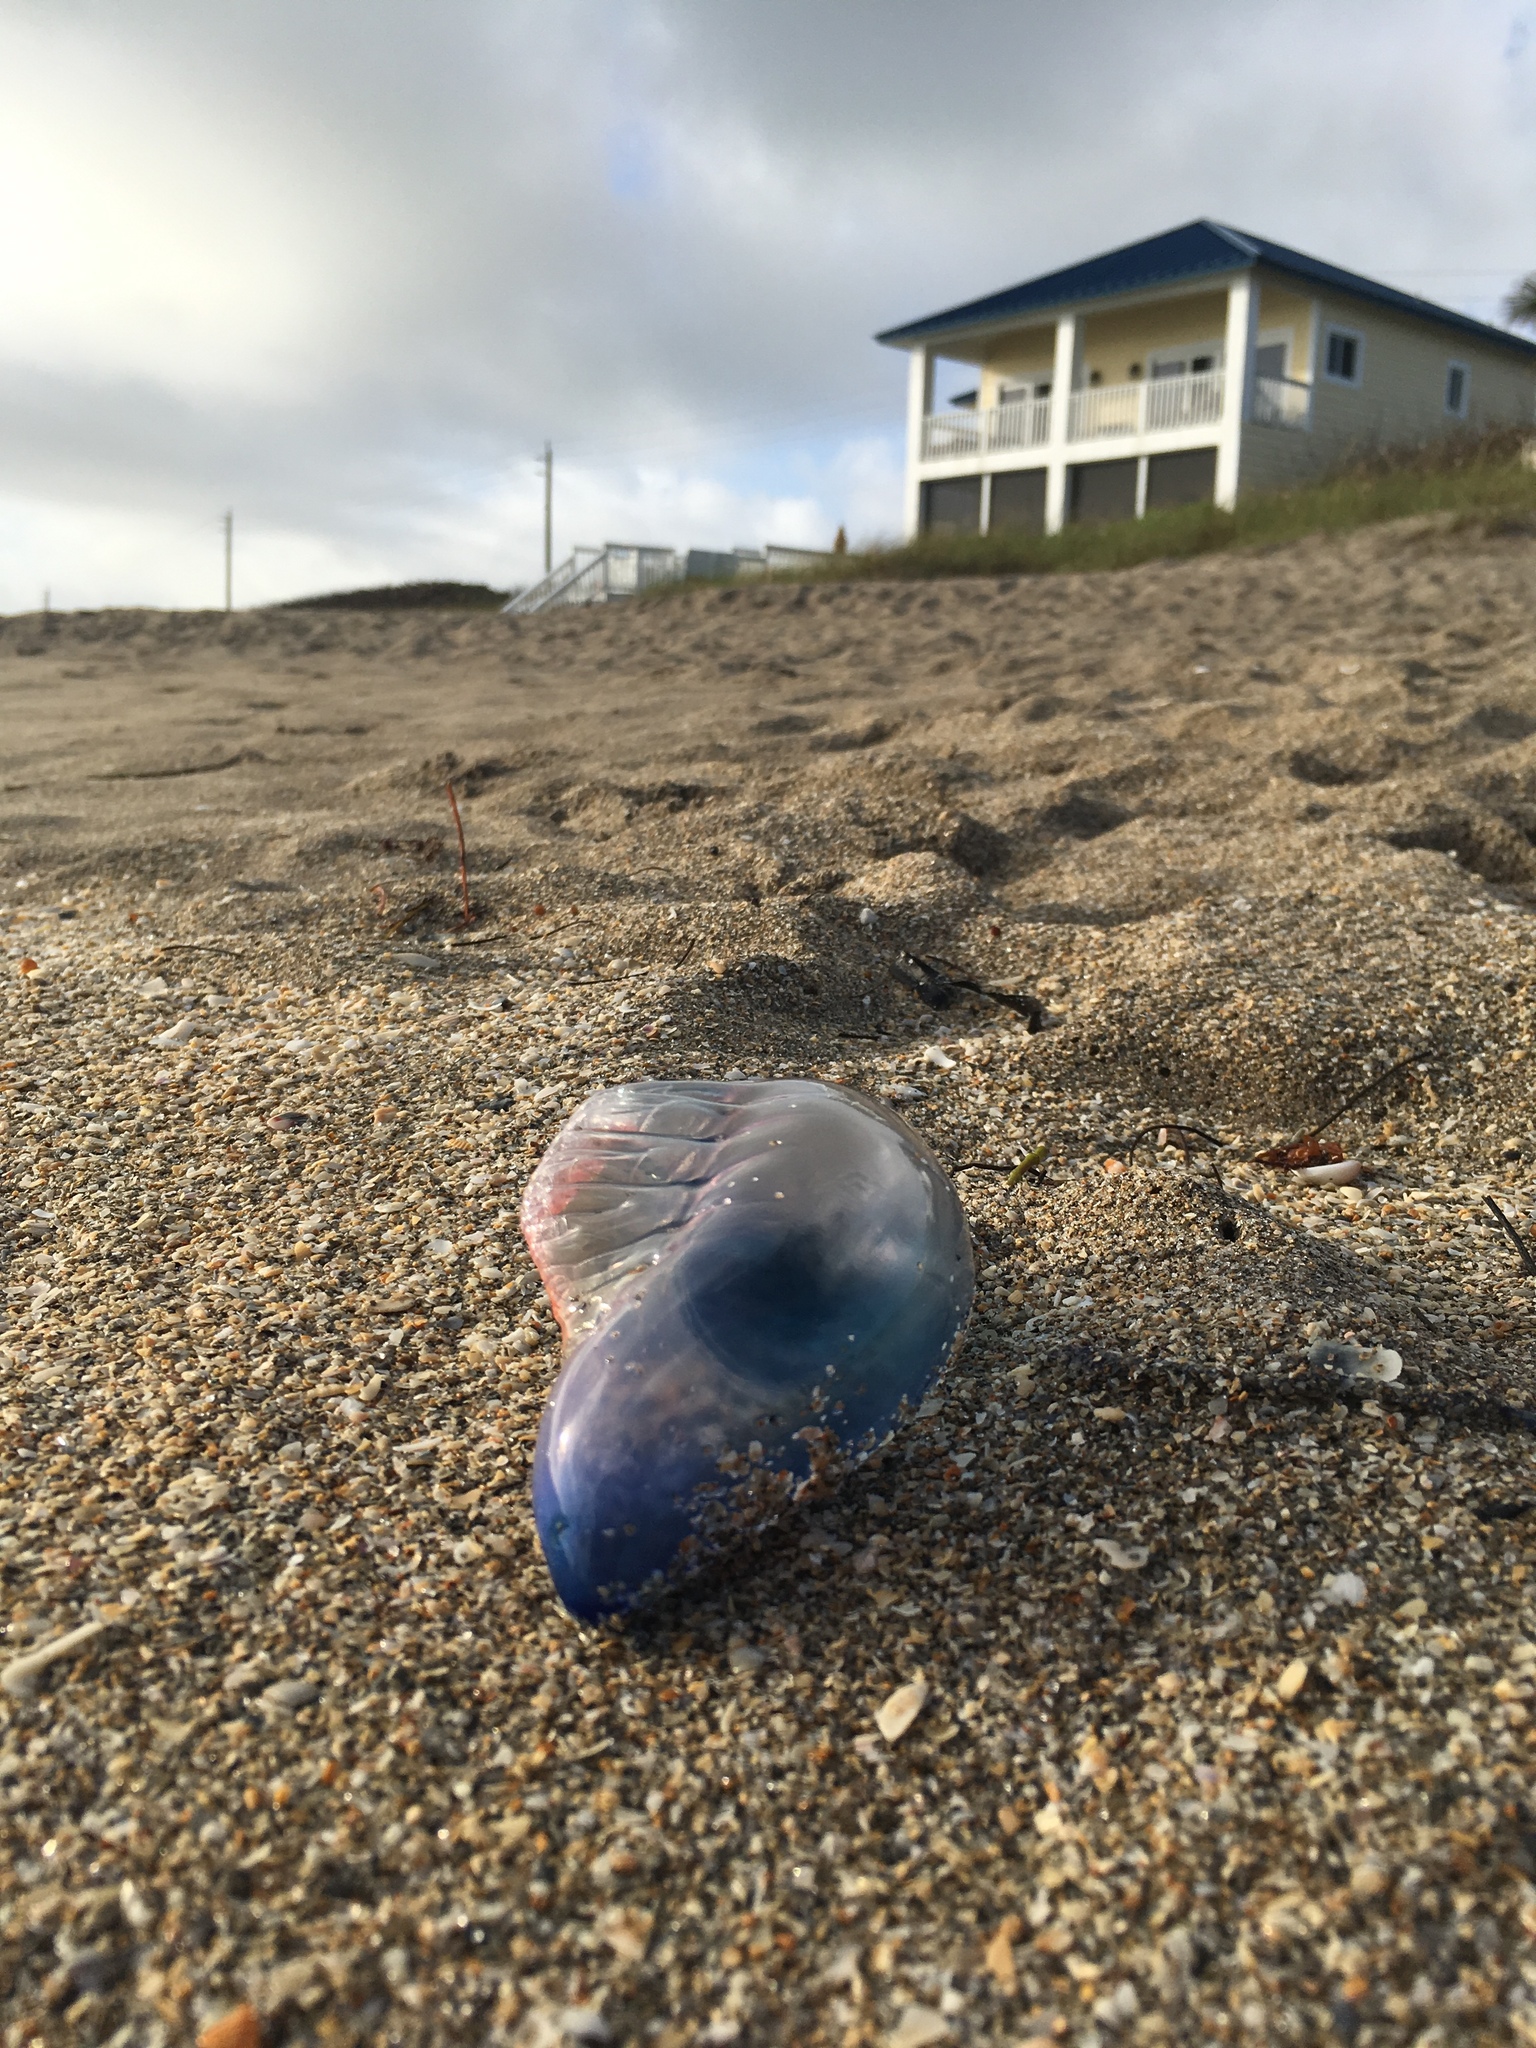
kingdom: Animalia
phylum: Cnidaria
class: Hydrozoa
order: Siphonophorae
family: Physaliidae
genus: Physalia
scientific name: Physalia physalis
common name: Portuguese man-of-war
